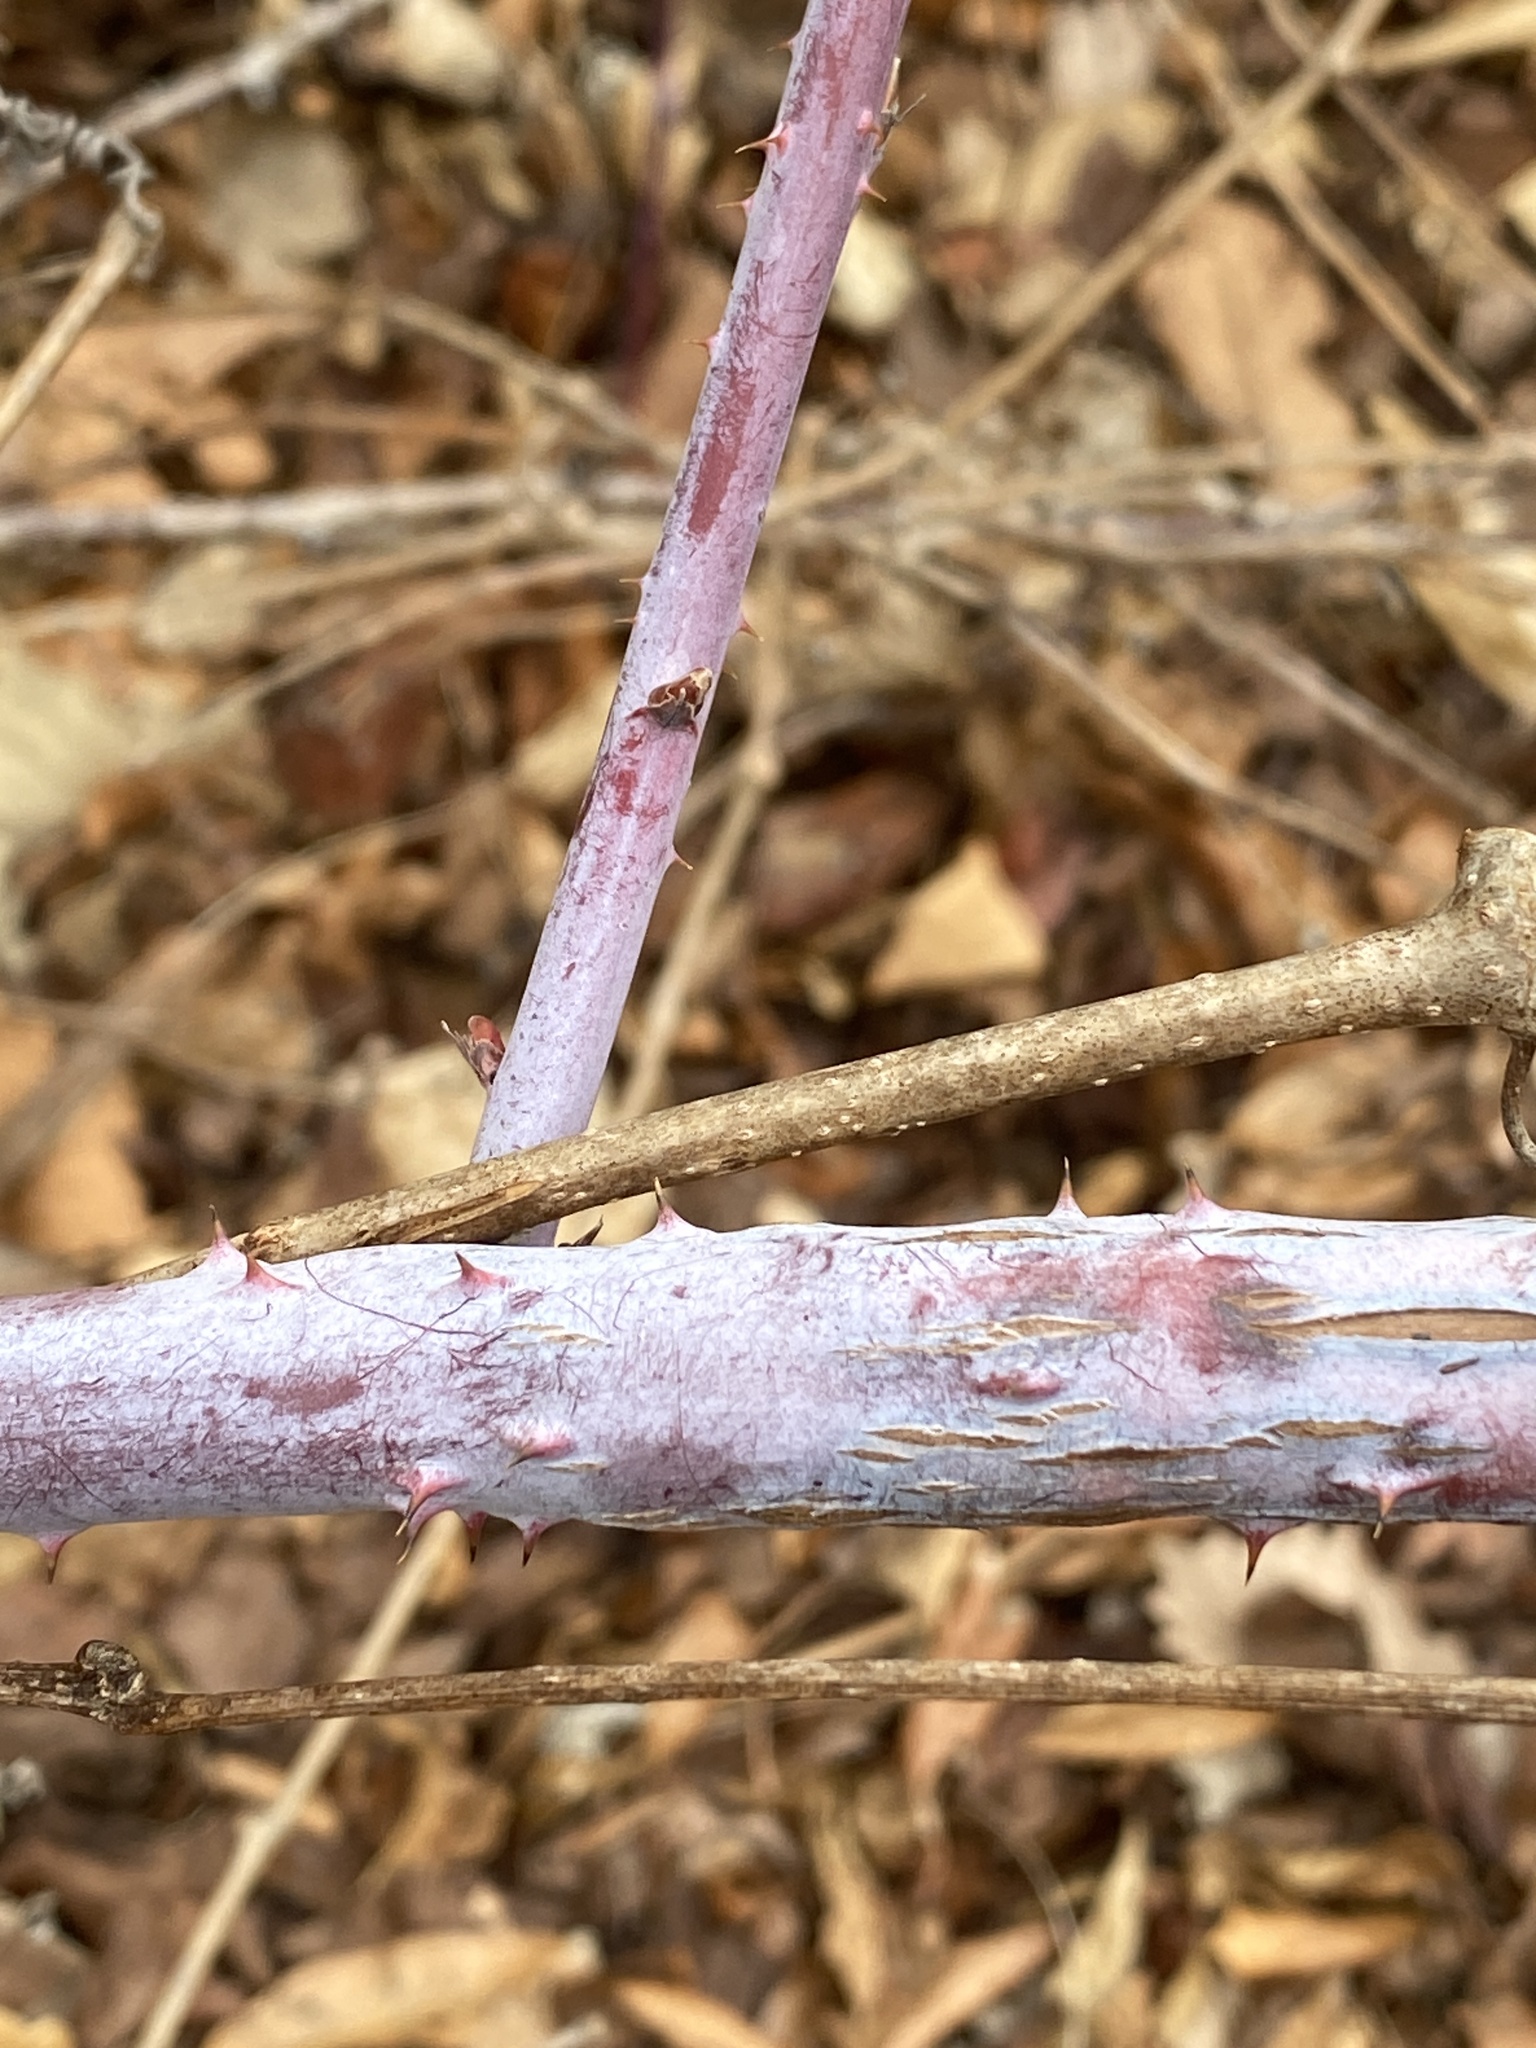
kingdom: Plantae
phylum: Tracheophyta
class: Magnoliopsida
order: Rosales
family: Rosaceae
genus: Rubus
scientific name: Rubus occidentalis
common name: Black raspberry
